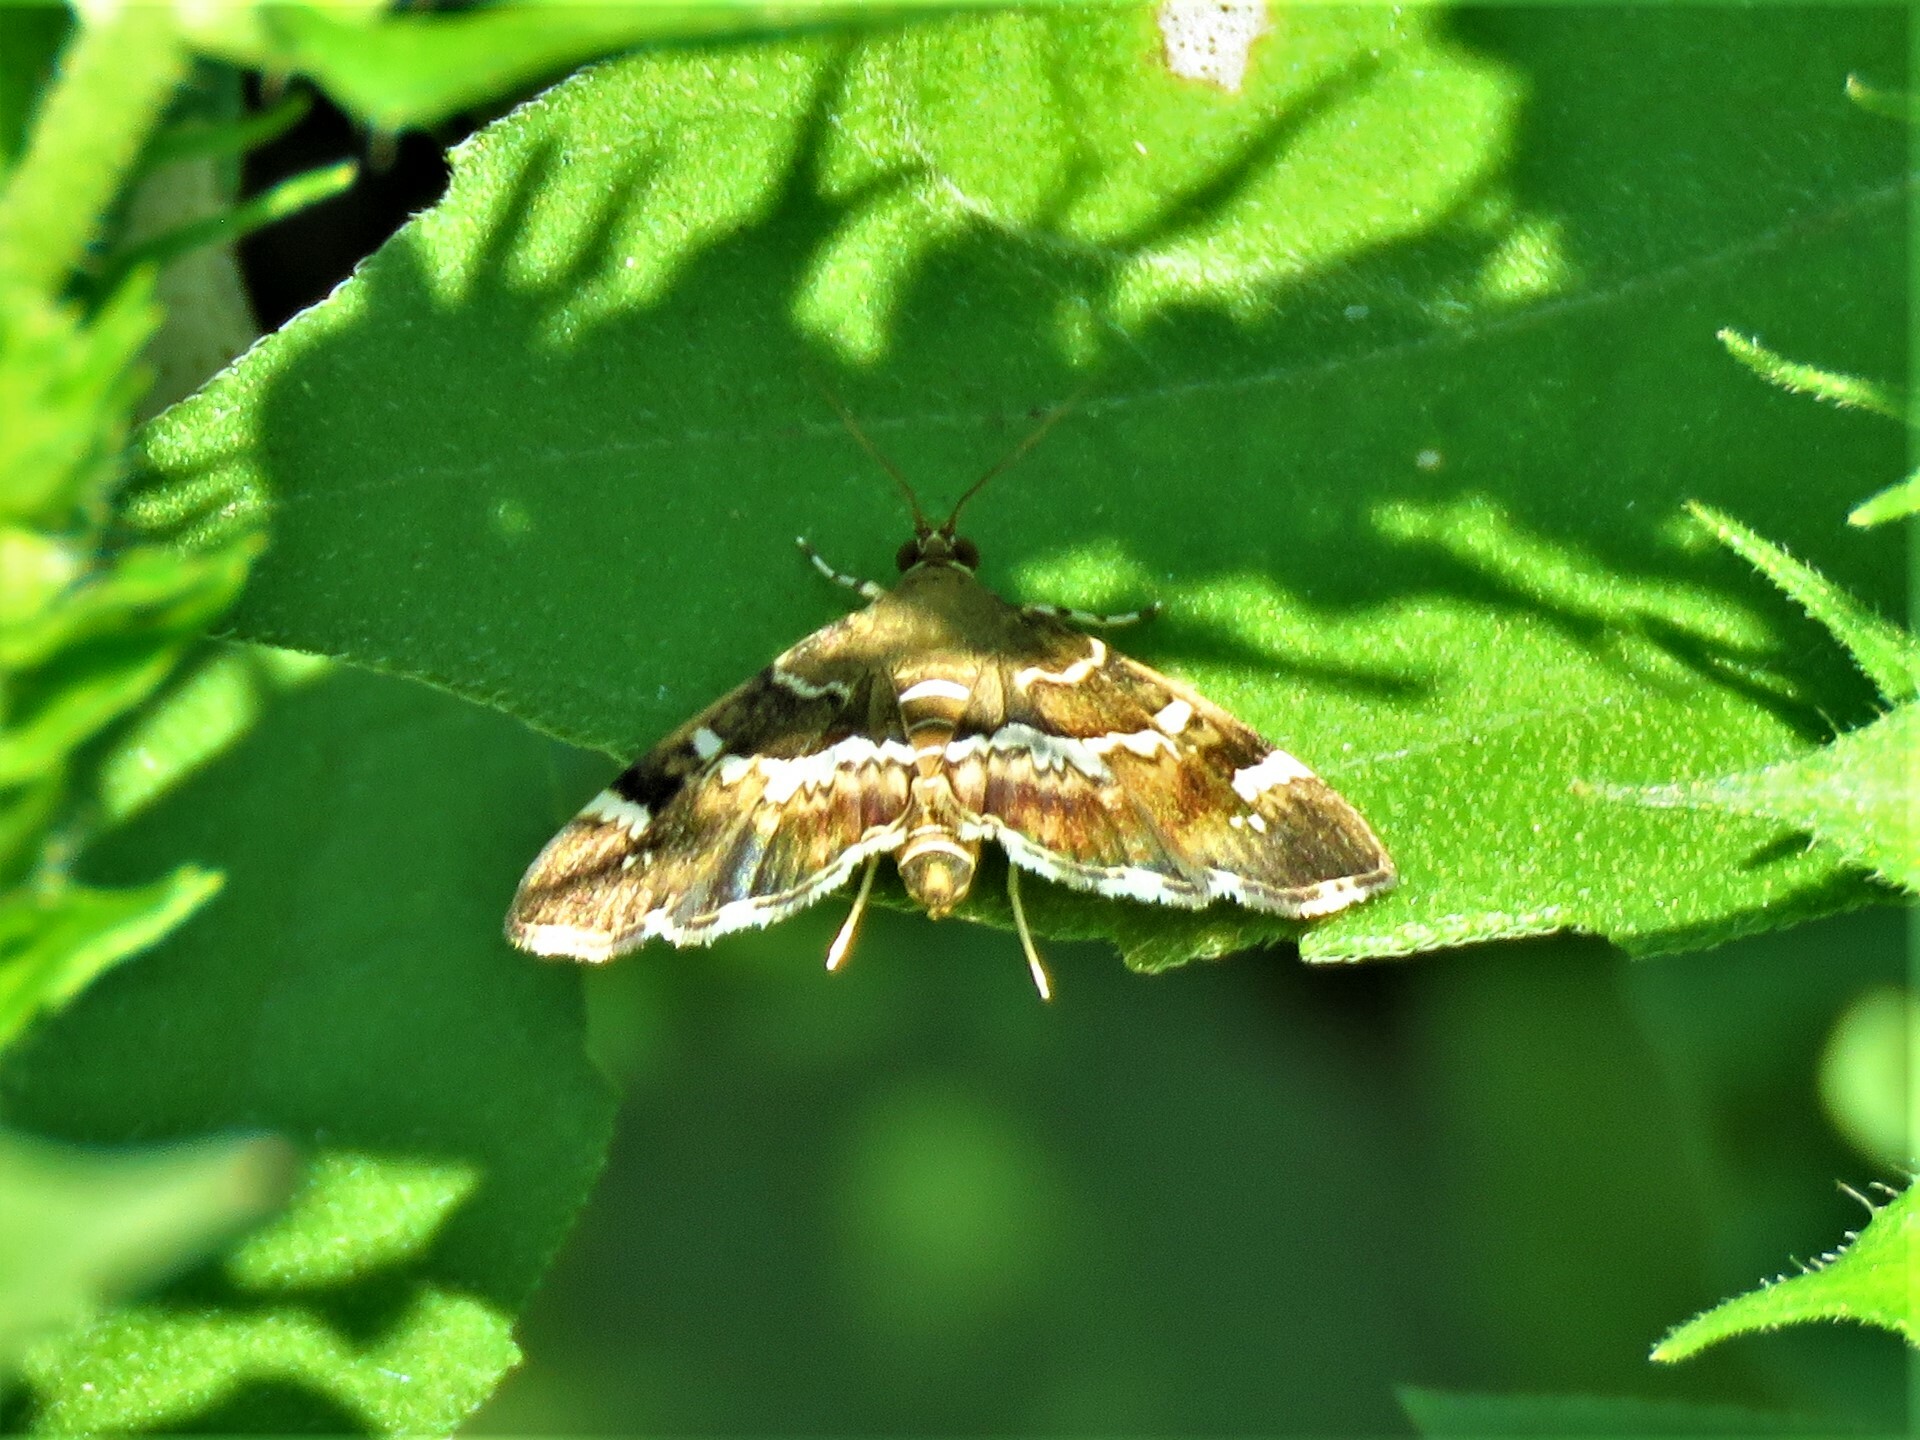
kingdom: Animalia
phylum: Arthropoda
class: Insecta
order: Lepidoptera
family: Crambidae
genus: Hymenia
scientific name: Hymenia perspectalis
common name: Spotted beet webworm
